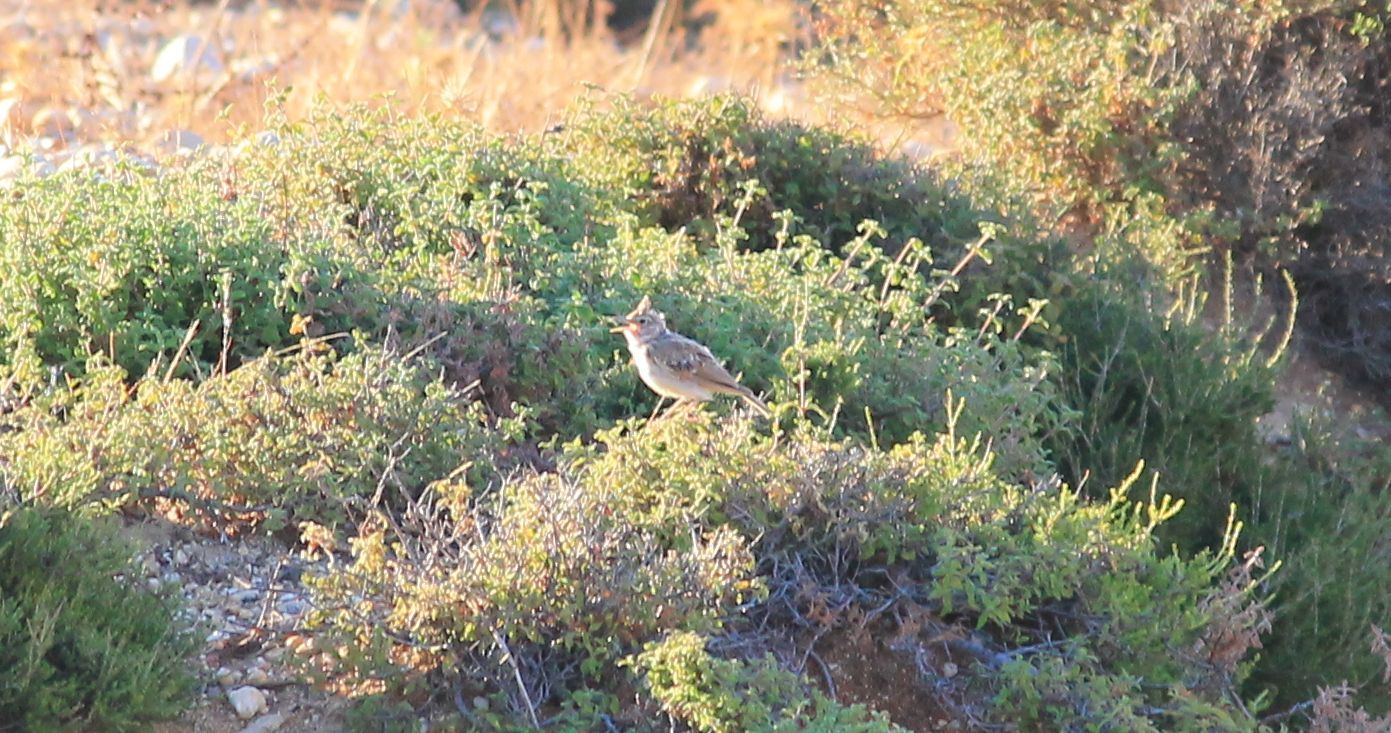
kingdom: Animalia
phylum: Chordata
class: Aves
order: Passeriformes
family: Alaudidae
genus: Galerida
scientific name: Galerida cristata
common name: Crested lark
